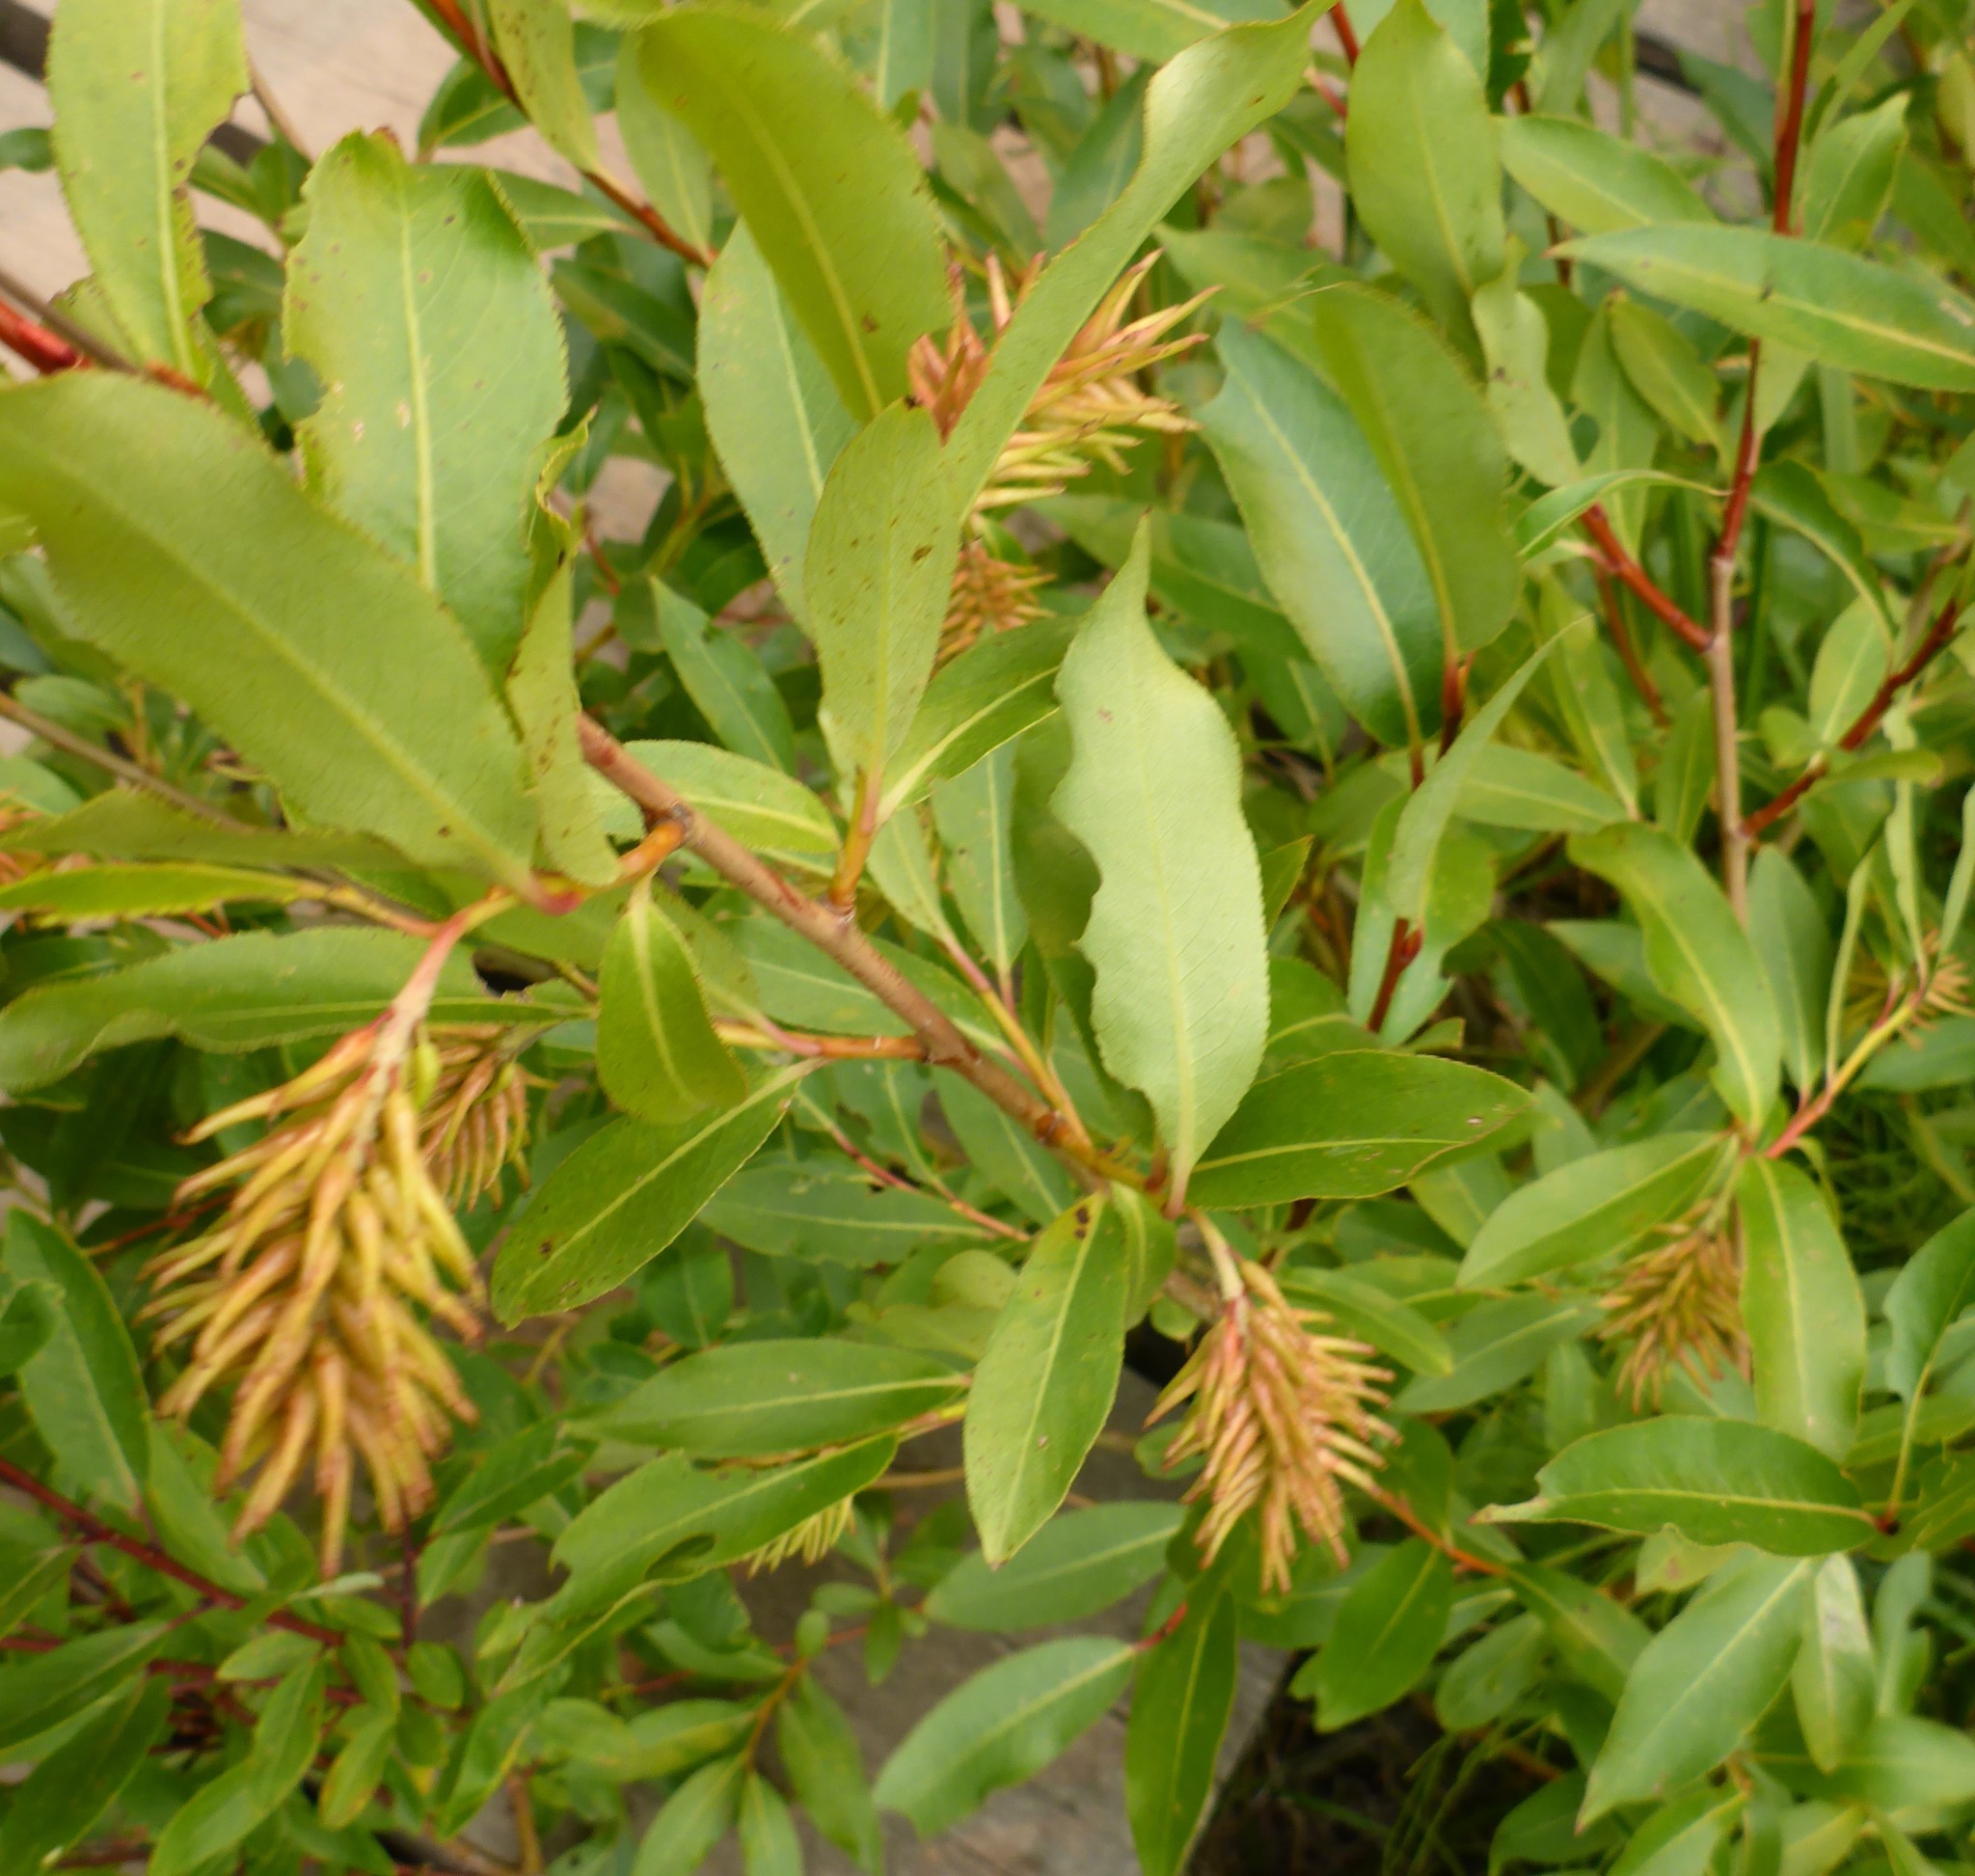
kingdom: Plantae
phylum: Tracheophyta
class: Magnoliopsida
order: Malpighiales
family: Salicaceae
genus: Salix
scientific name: Salix serissima
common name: Autumn willow
